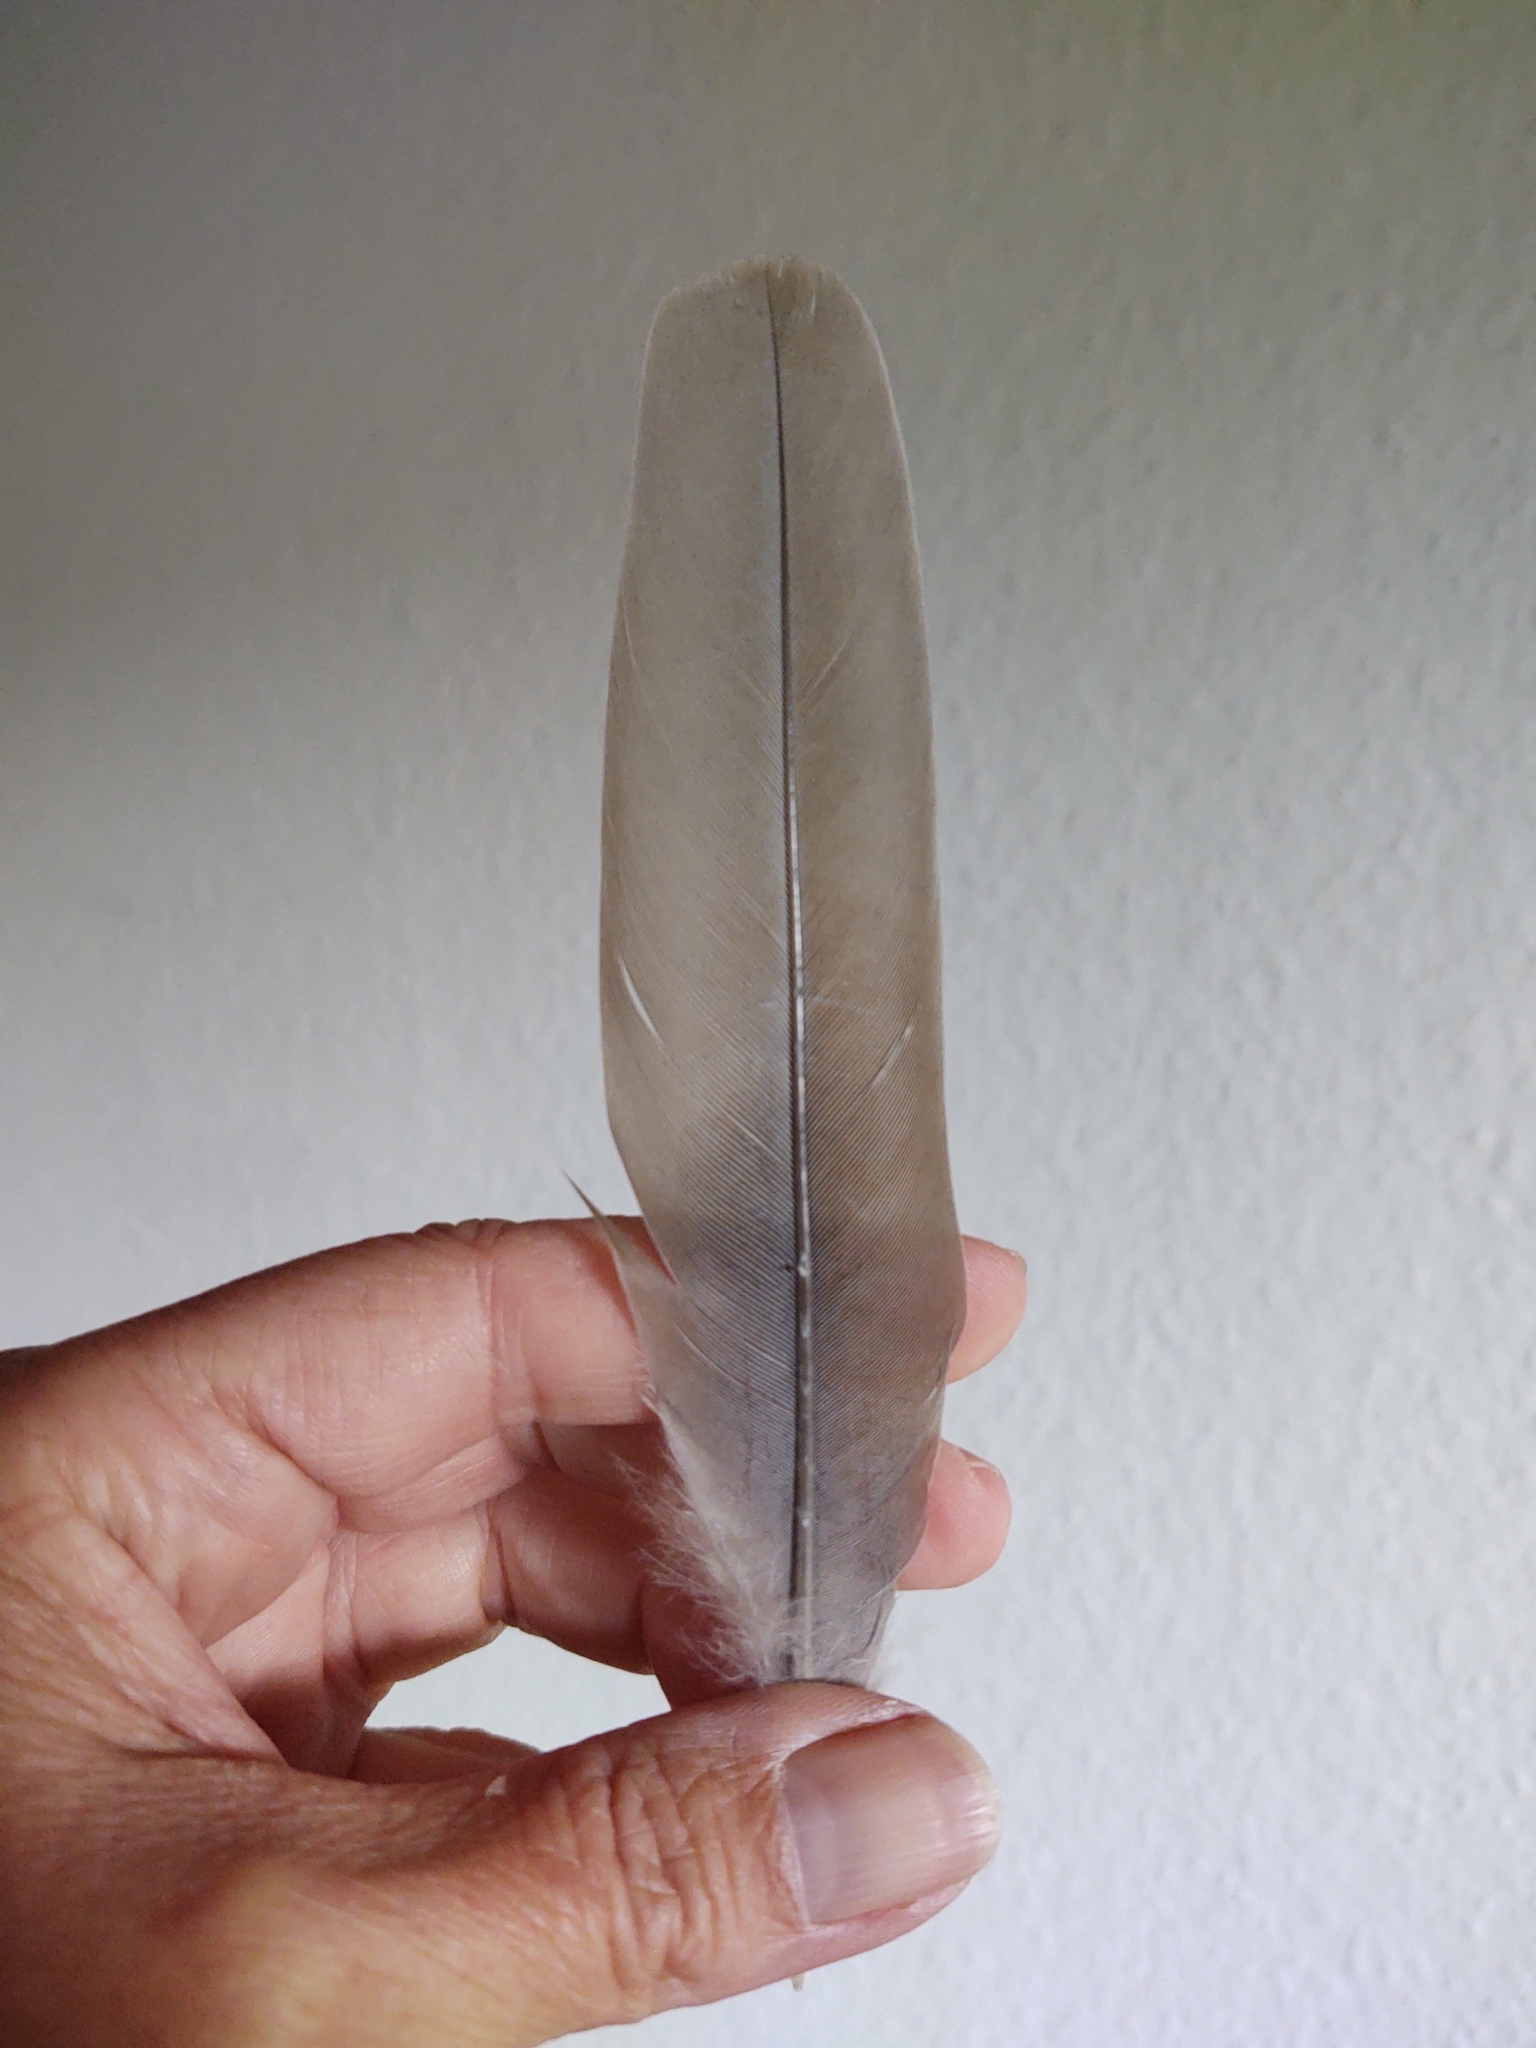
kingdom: Animalia
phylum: Chordata
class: Aves
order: Columbiformes
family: Columbidae
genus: Streptopelia
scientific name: Streptopelia decaocto
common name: Eurasian collared dove
